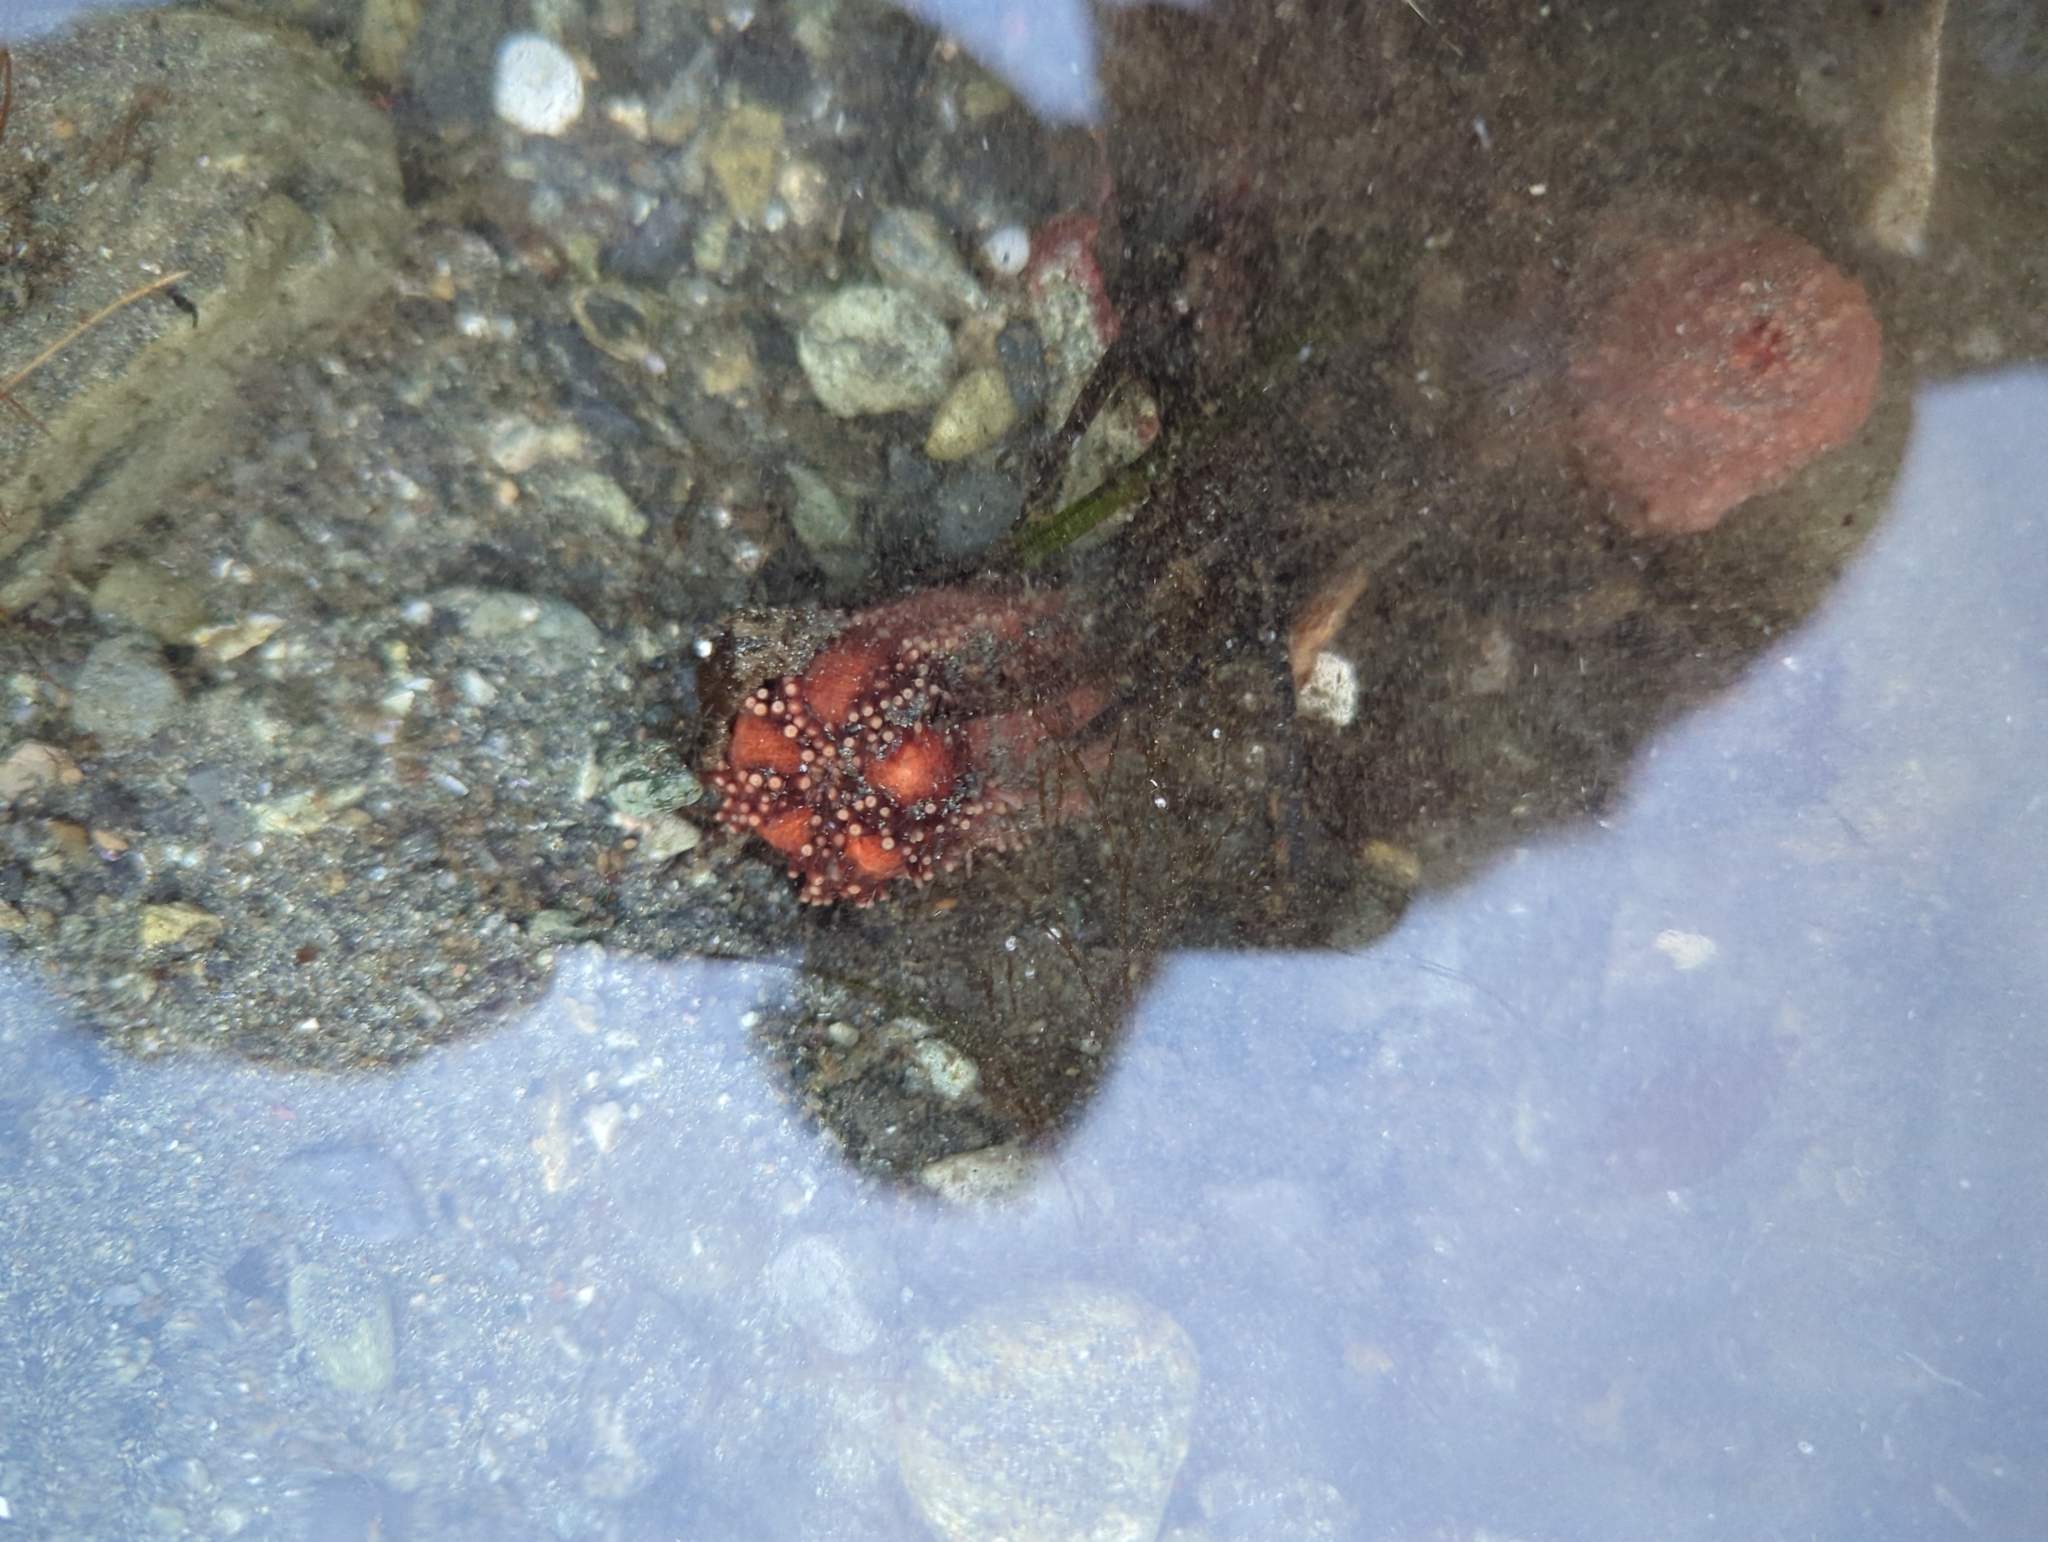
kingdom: Animalia
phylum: Echinodermata
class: Holothuroidea
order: Dendrochirotida
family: Cucumariidae
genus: Cucumaria
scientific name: Cucumaria miniata
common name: Orange sea cucumber
